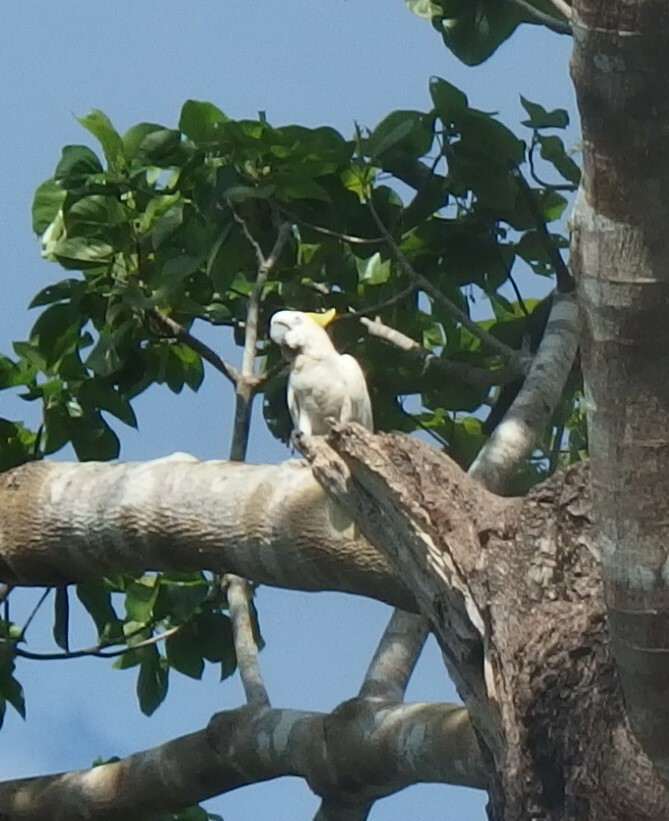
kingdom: Animalia
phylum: Chordata
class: Aves
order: Psittaciformes
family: Psittacidae
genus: Cacatua
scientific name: Cacatua sulphurea
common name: Yellow-crested cockatoo
